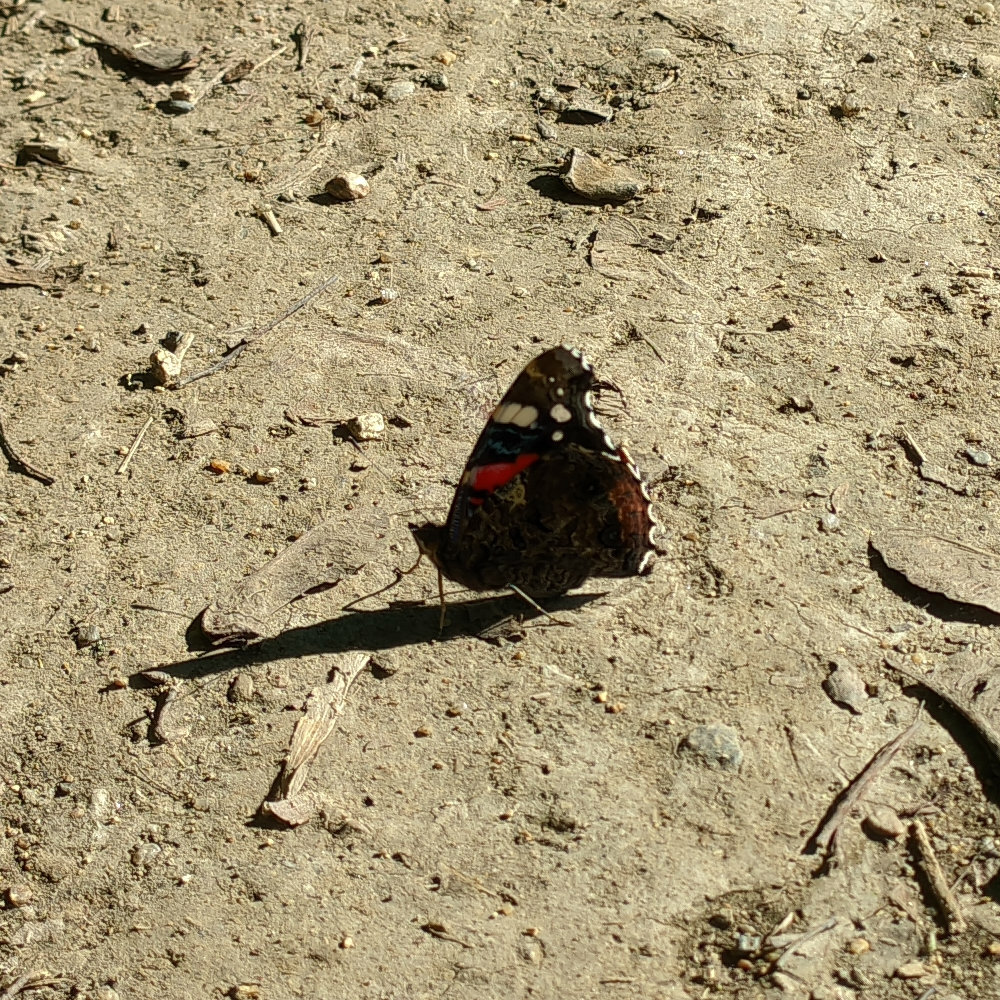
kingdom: Animalia
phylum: Arthropoda
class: Insecta
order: Lepidoptera
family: Nymphalidae
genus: Vanessa
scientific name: Vanessa atalanta
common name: Red admiral
